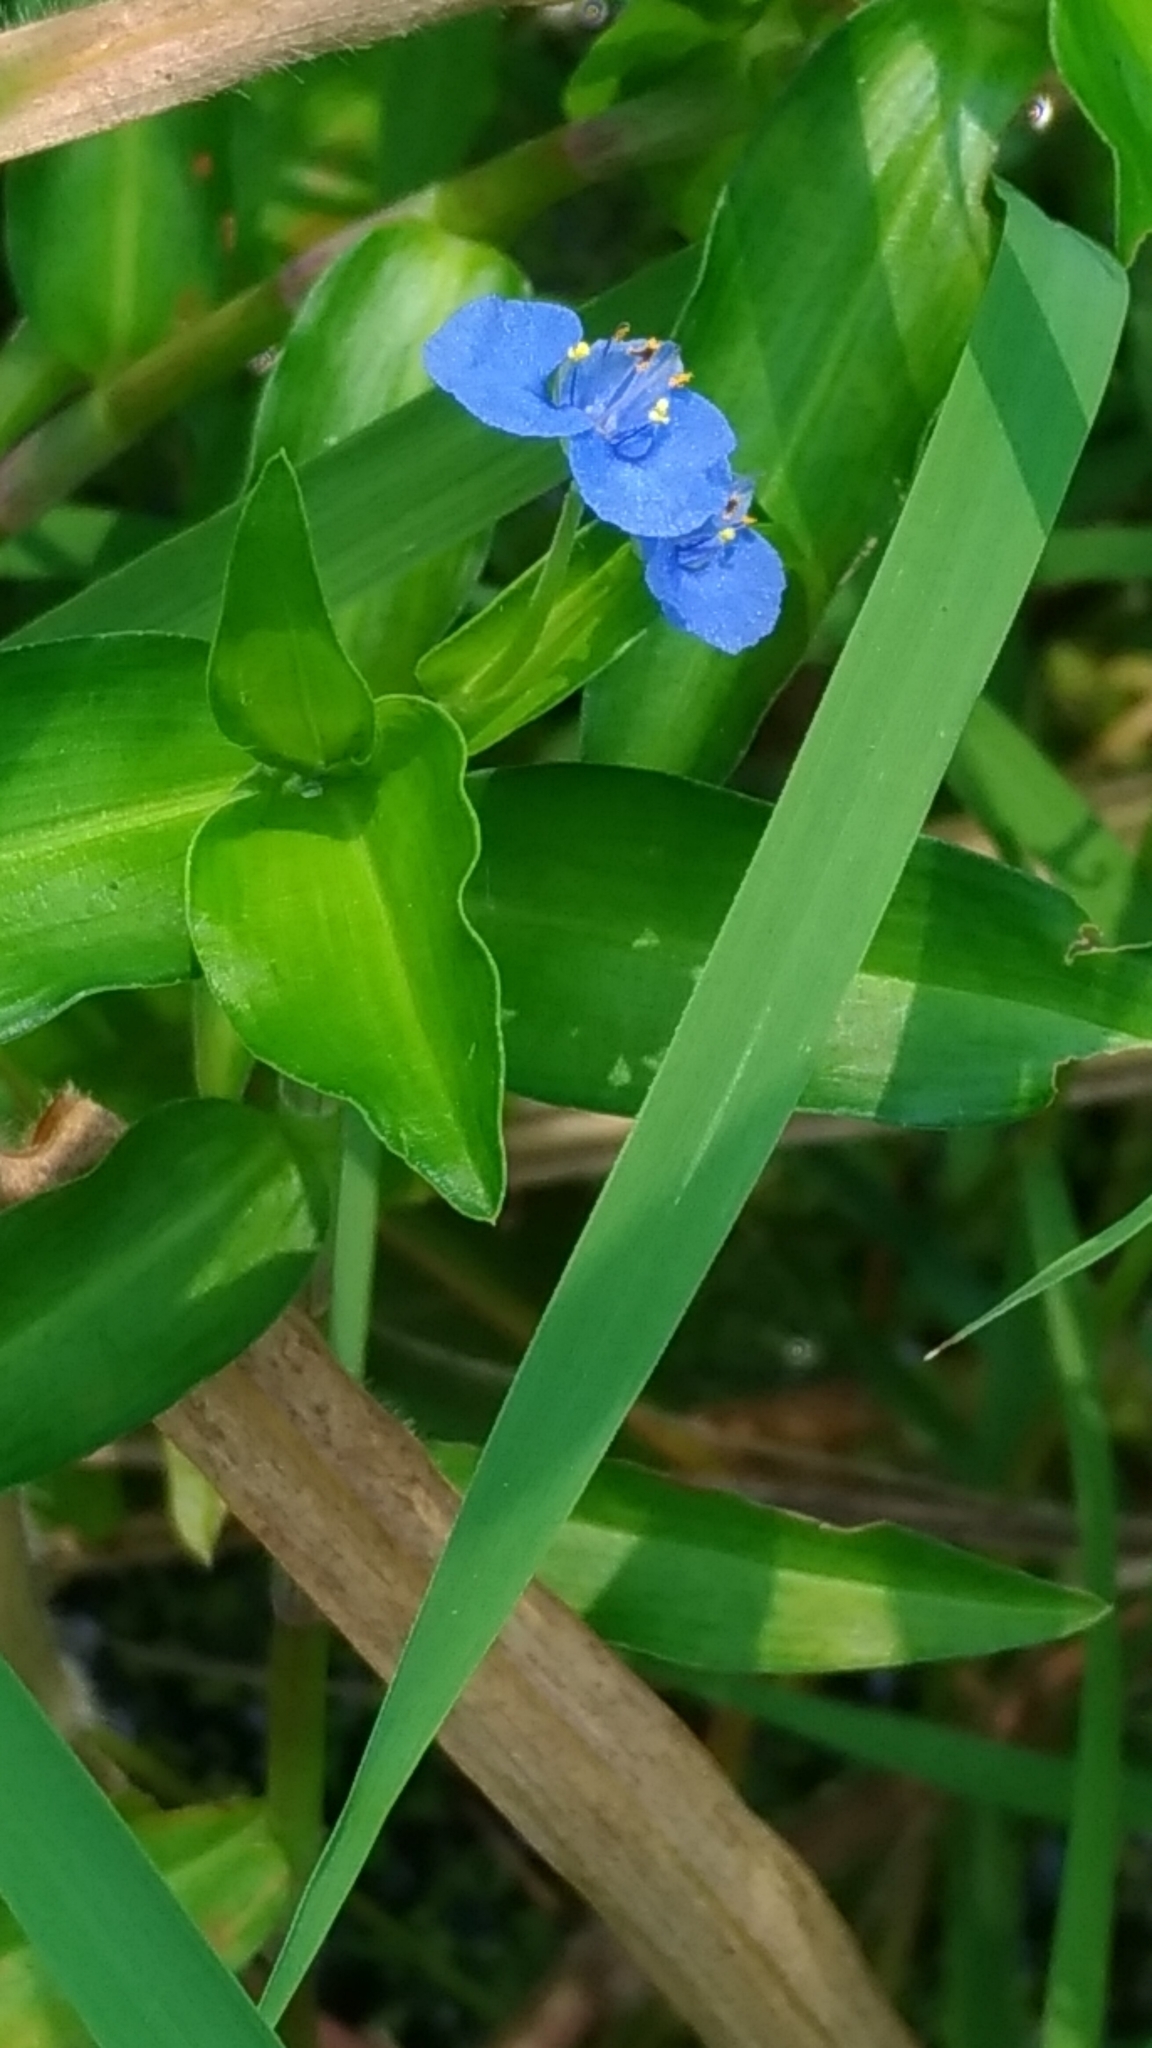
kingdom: Plantae
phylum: Tracheophyta
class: Liliopsida
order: Commelinales
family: Commelinaceae
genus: Commelina
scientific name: Commelina diffusa
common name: Climbing dayflower
